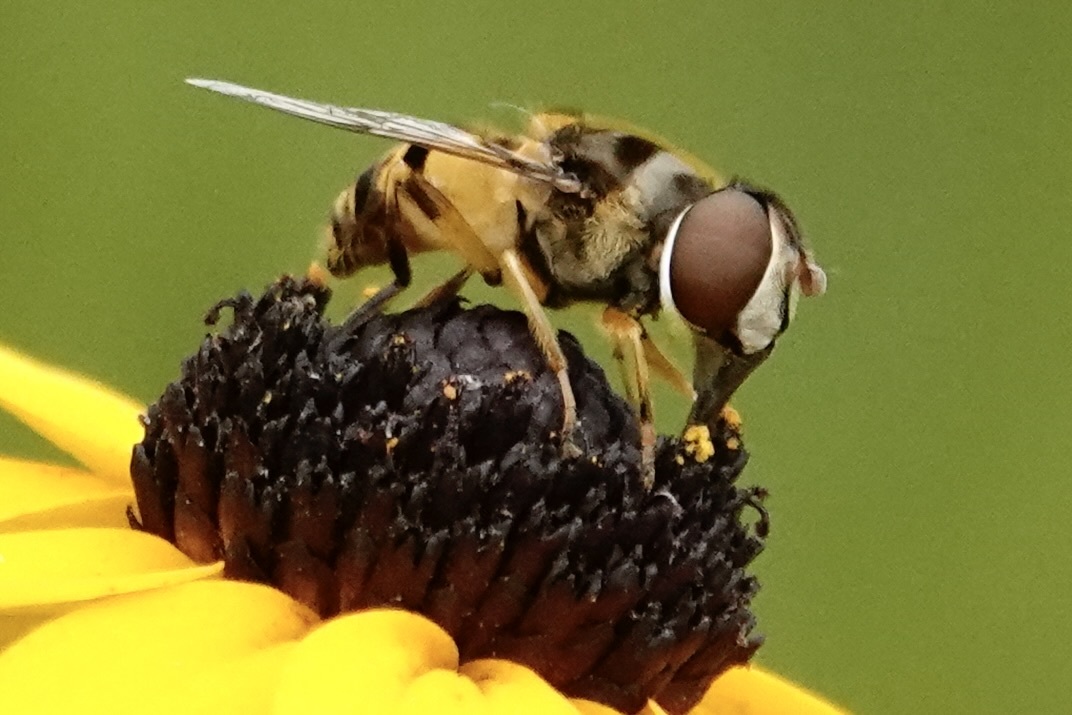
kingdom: Animalia
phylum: Arthropoda
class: Insecta
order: Diptera
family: Syrphidae
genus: Eristalis
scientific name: Eristalis transversa
